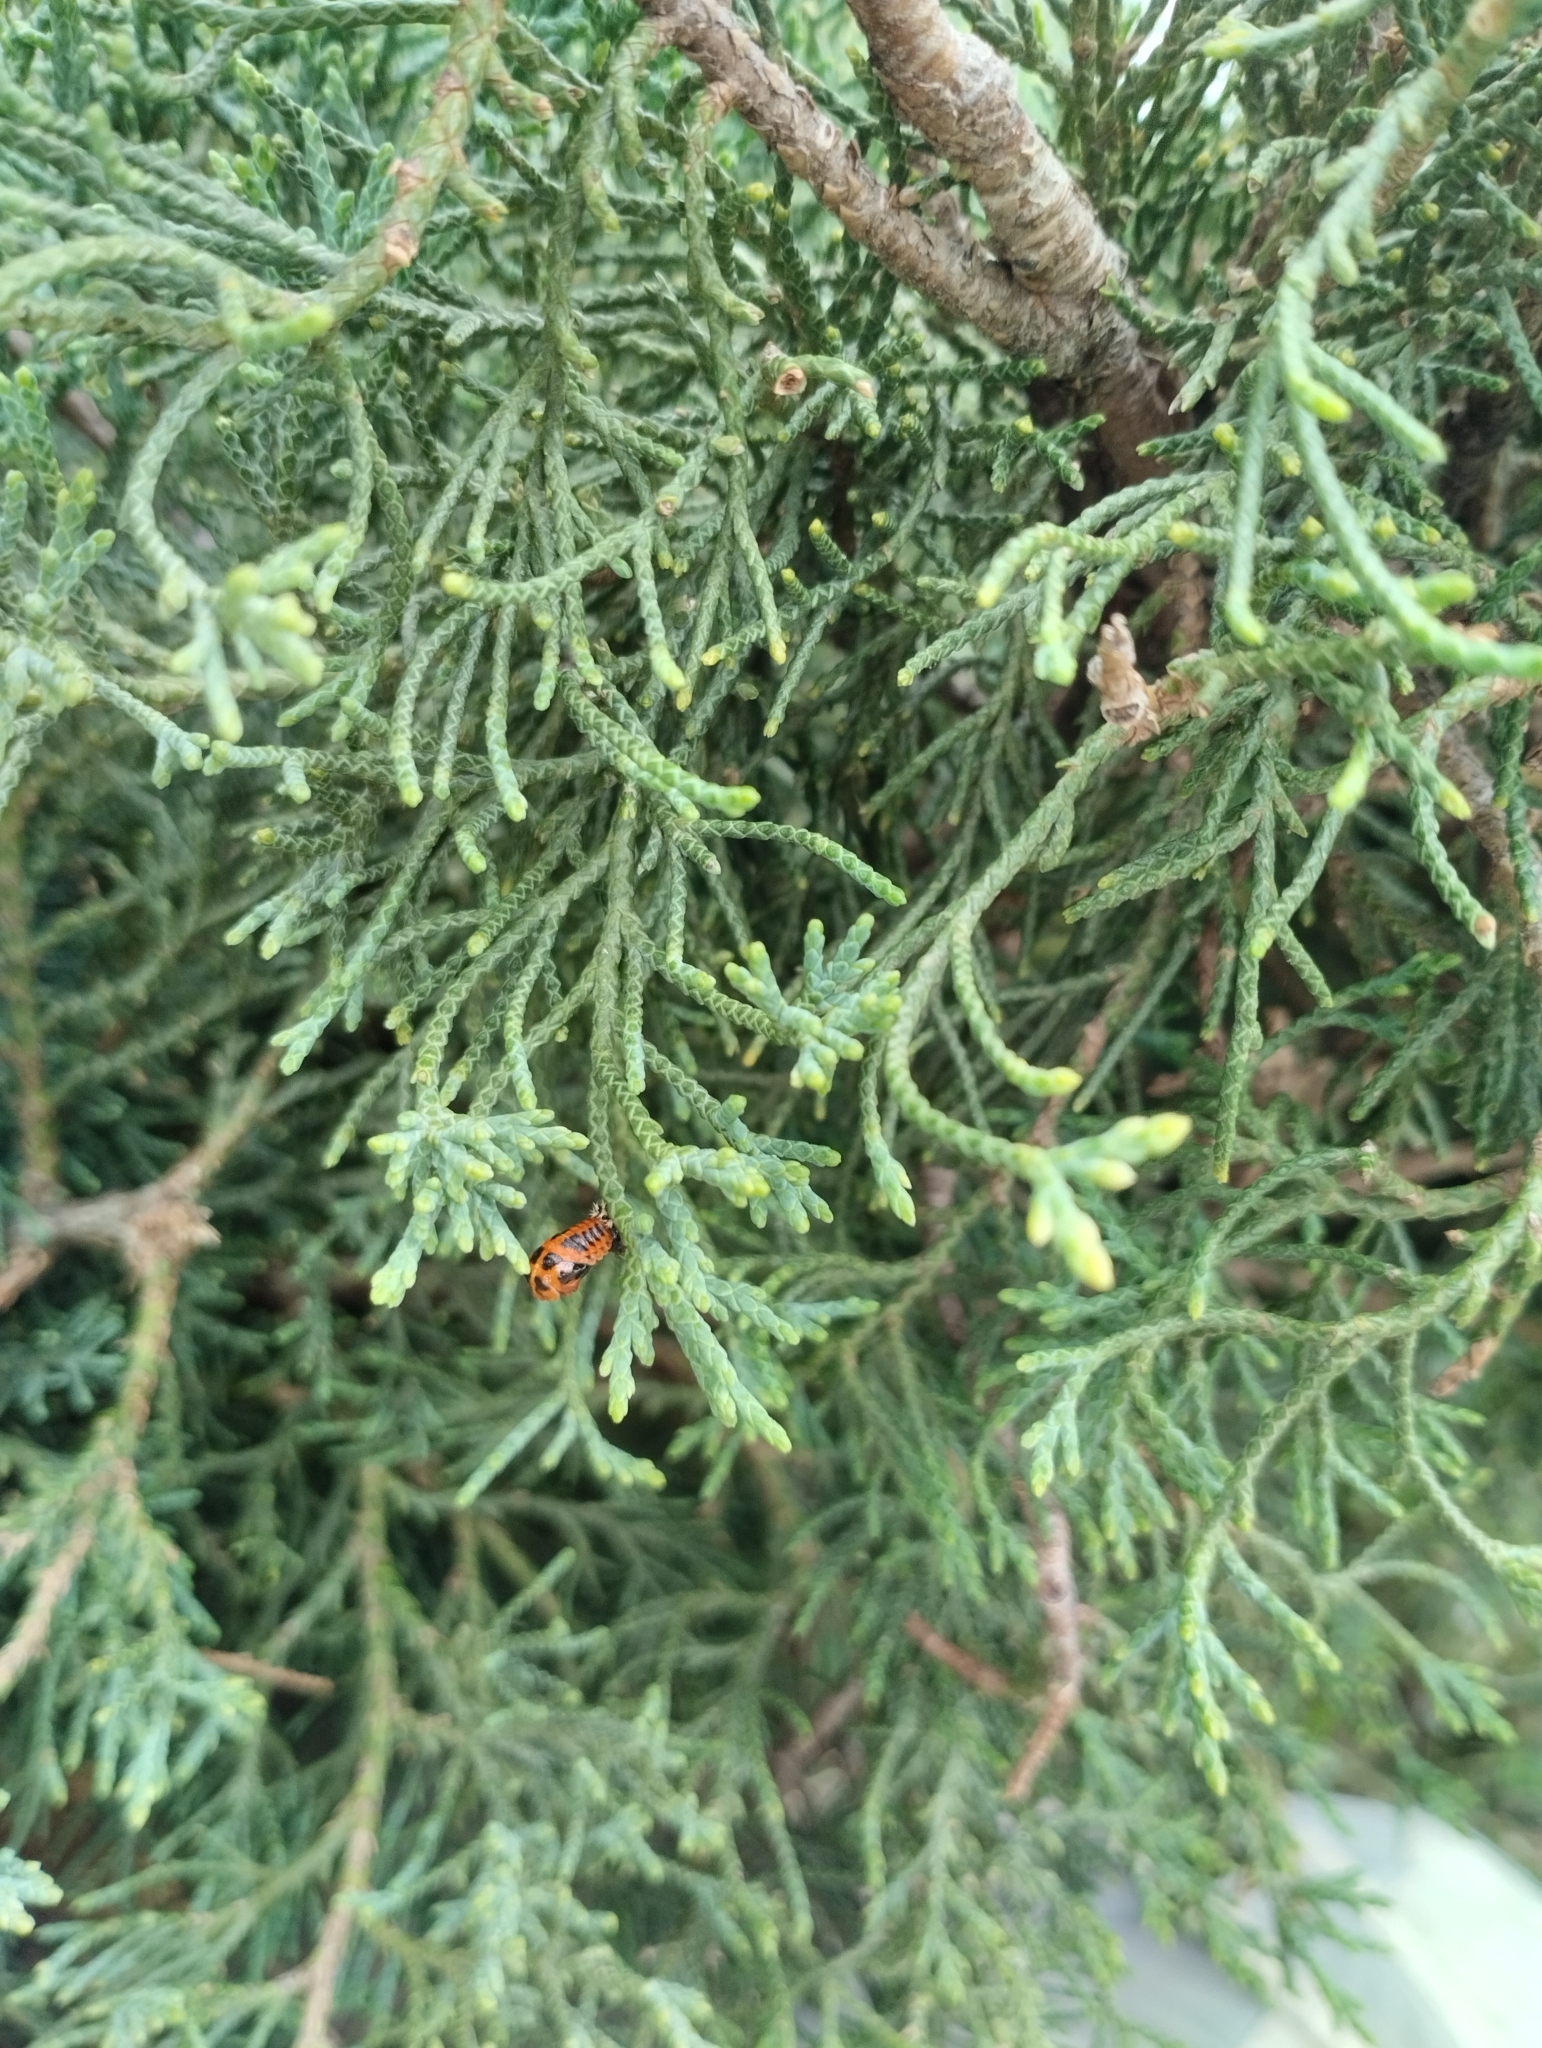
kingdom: Animalia
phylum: Arthropoda
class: Insecta
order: Coleoptera
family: Coccinellidae
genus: Harmonia
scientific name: Harmonia axyridis
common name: Harlequin ladybird
